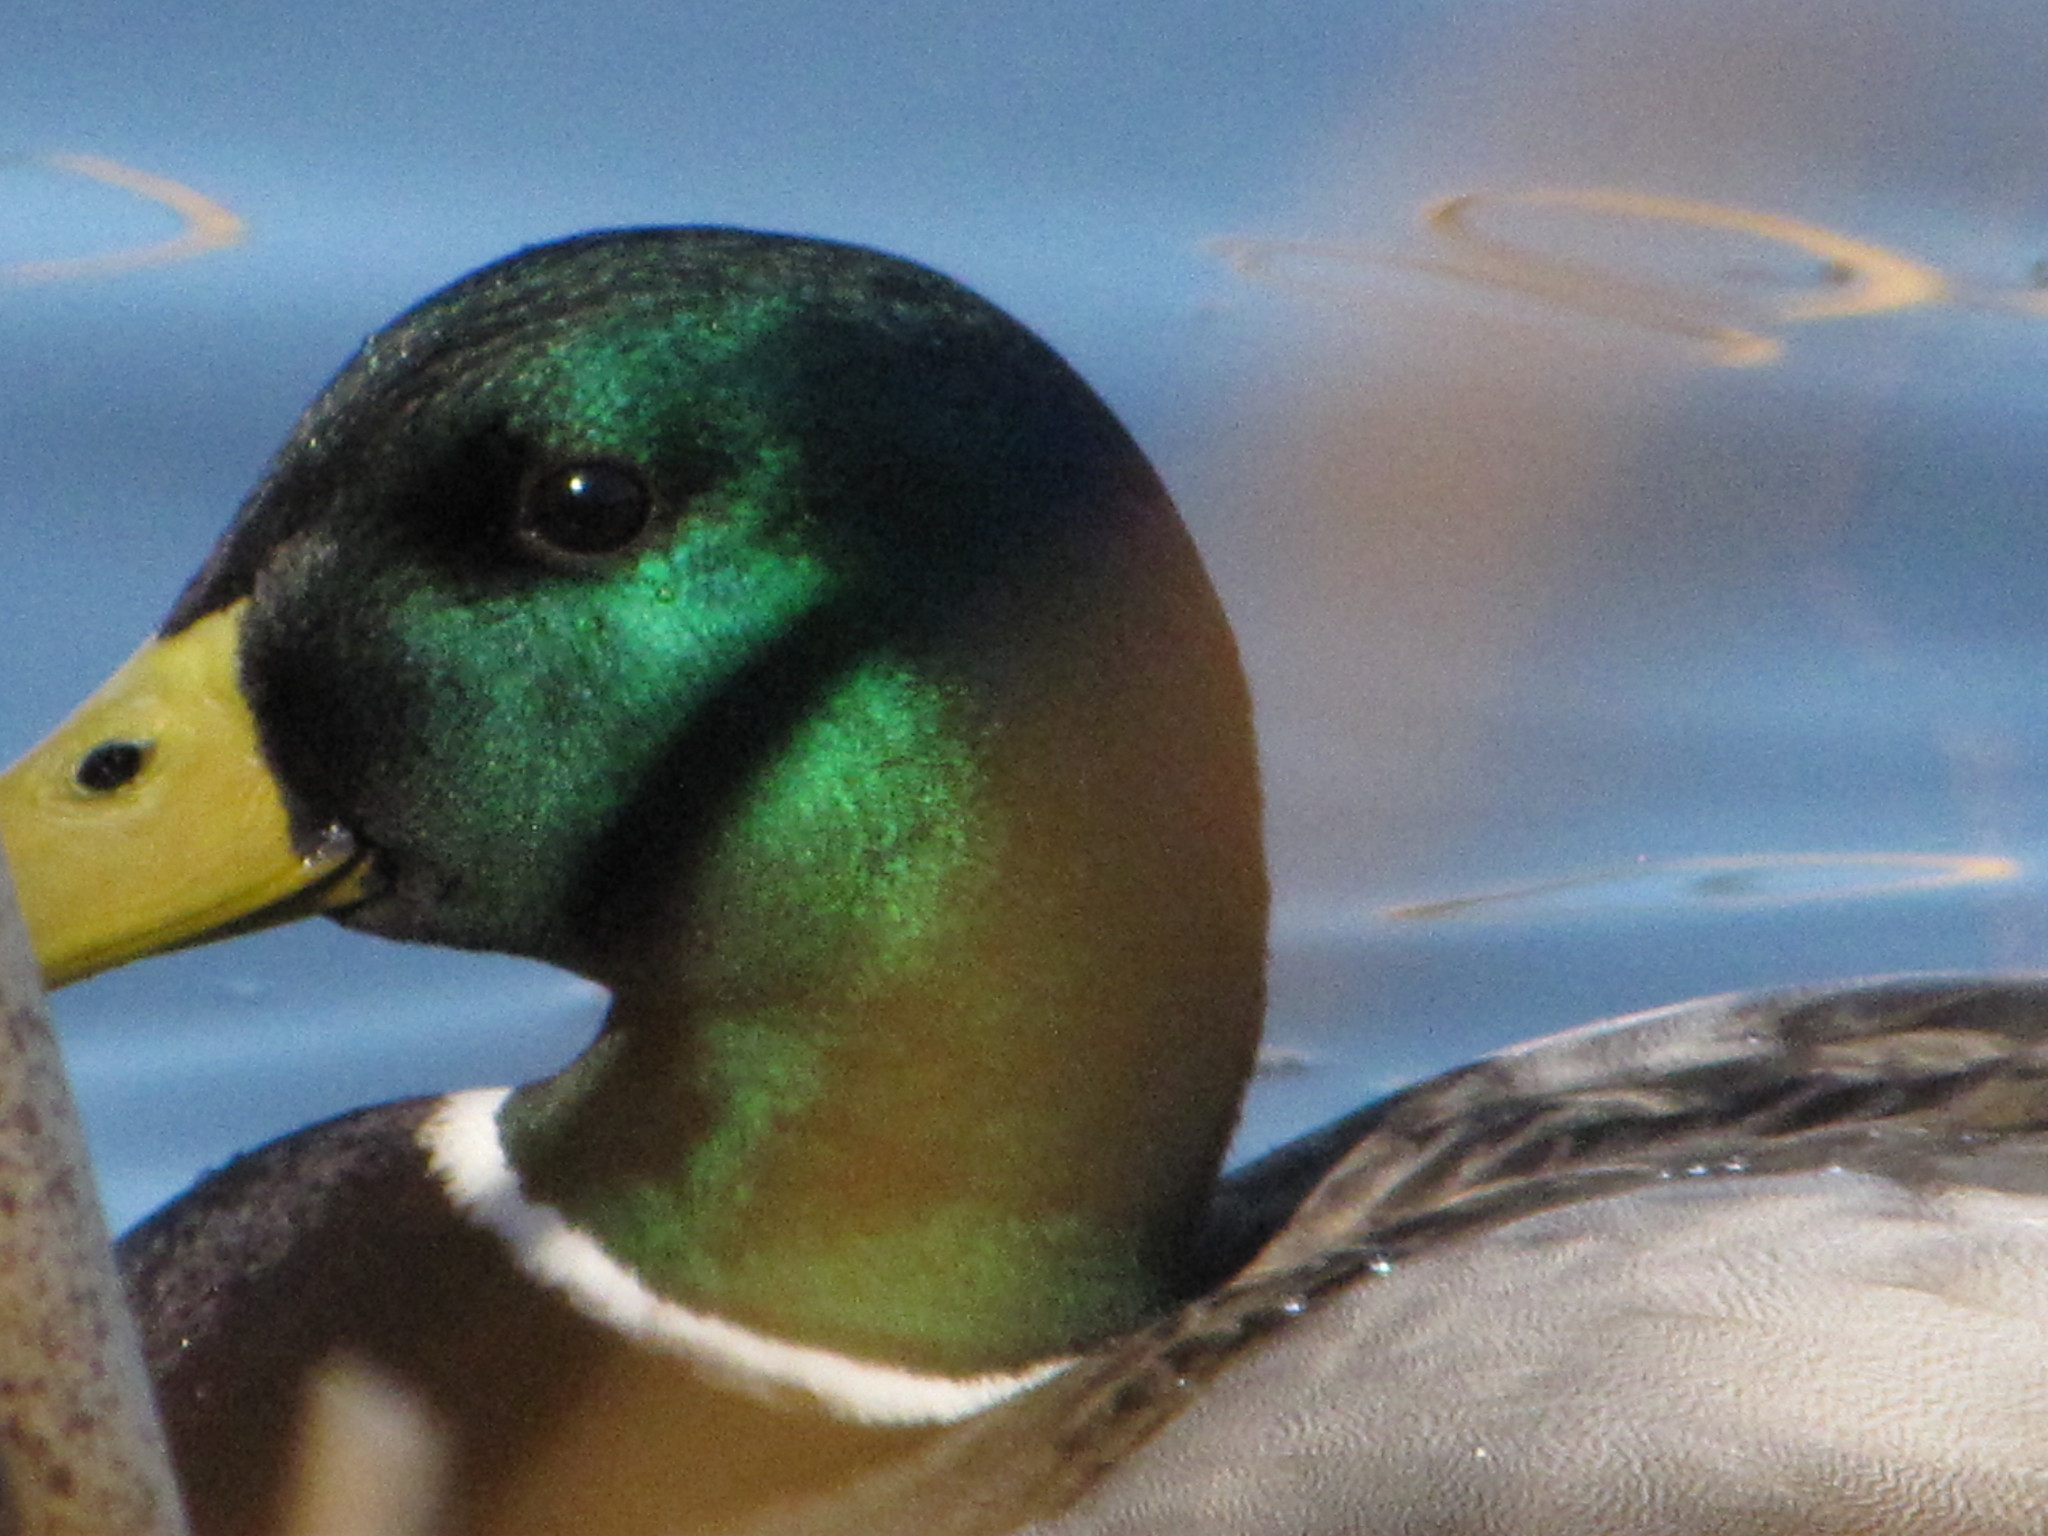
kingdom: Animalia
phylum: Chordata
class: Aves
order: Anseriformes
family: Anatidae
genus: Anas
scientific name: Anas platyrhynchos
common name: Mallard
